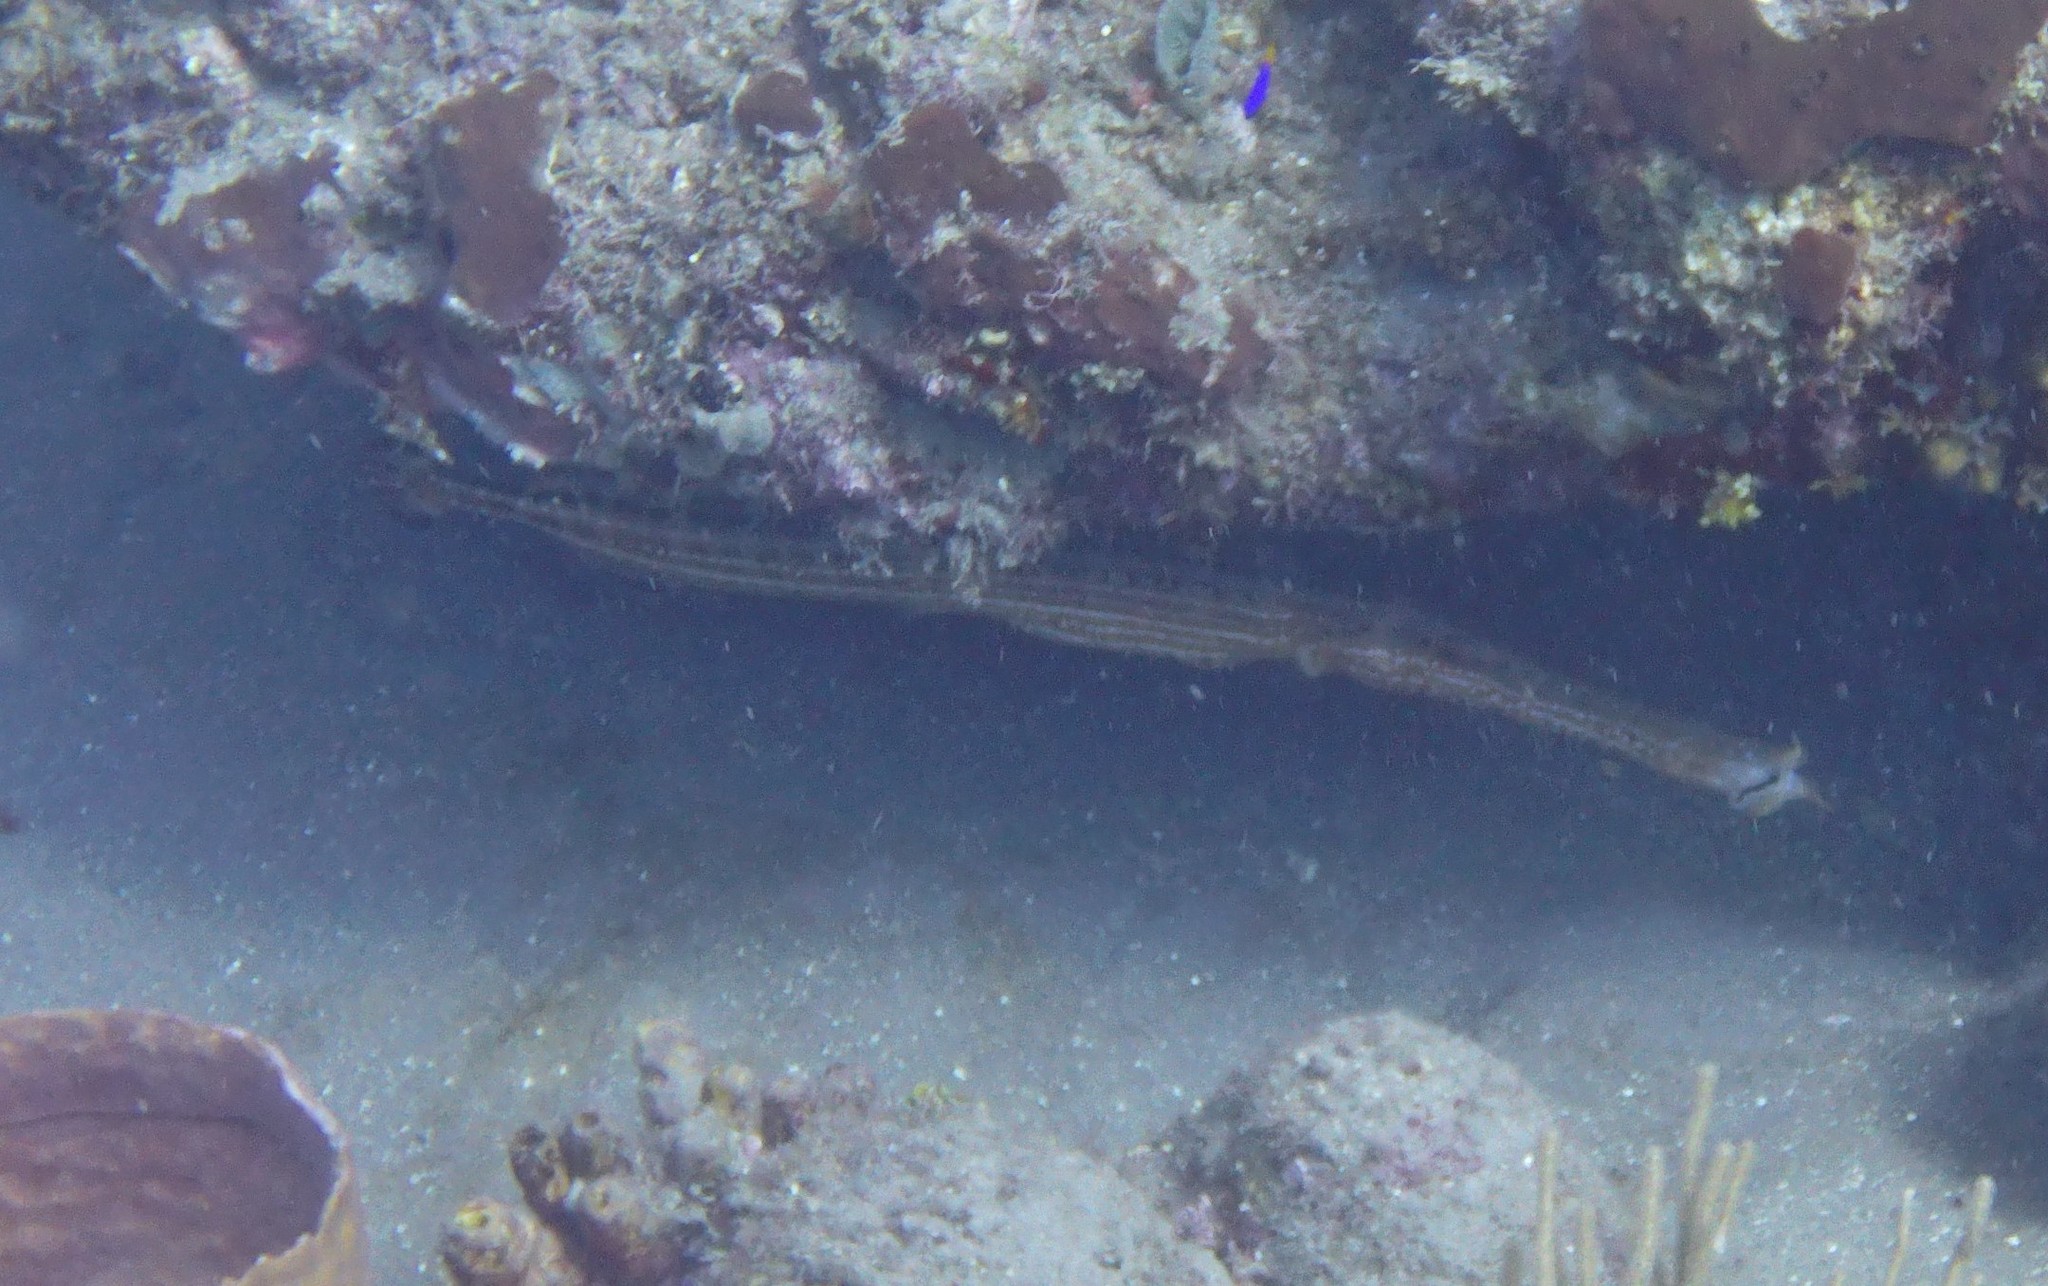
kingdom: Animalia
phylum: Chordata
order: Syngnathiformes
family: Aulostomidae
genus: Aulostomus
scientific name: Aulostomus maculatus
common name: West atlantic trumpetfish
